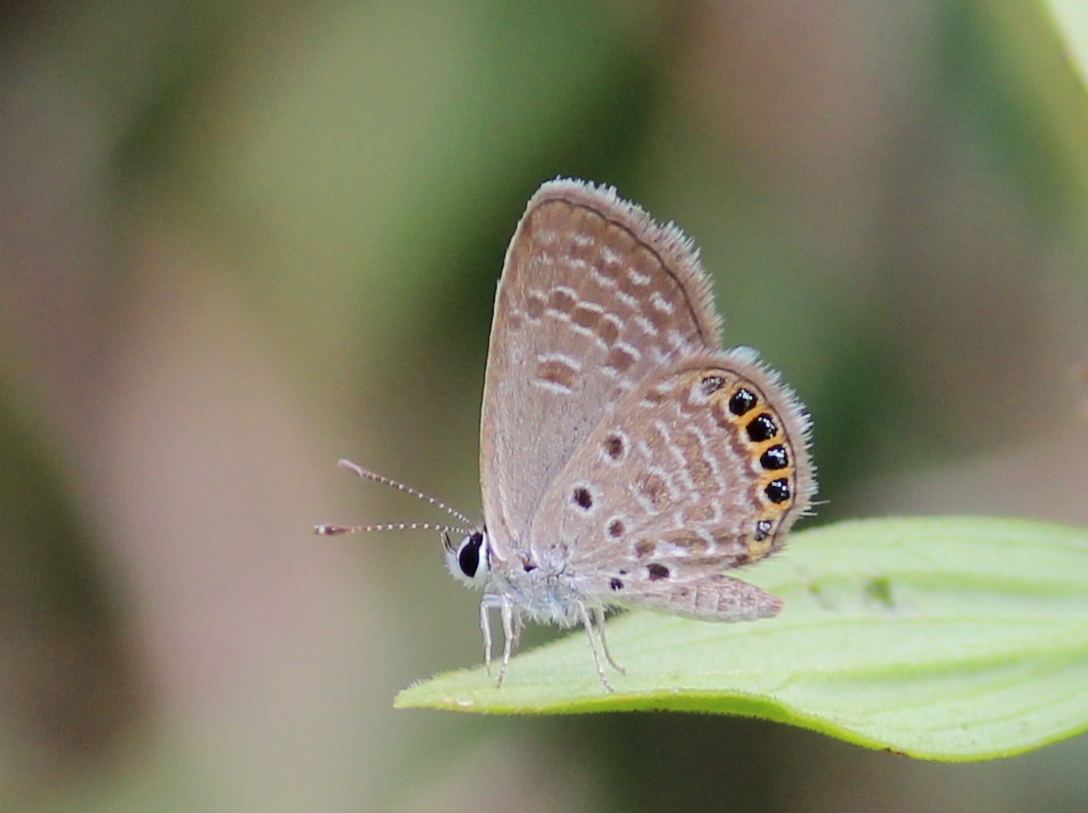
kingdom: Animalia
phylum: Arthropoda
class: Insecta
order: Lepidoptera
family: Lycaenidae
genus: Freyeria
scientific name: Freyeria putli
